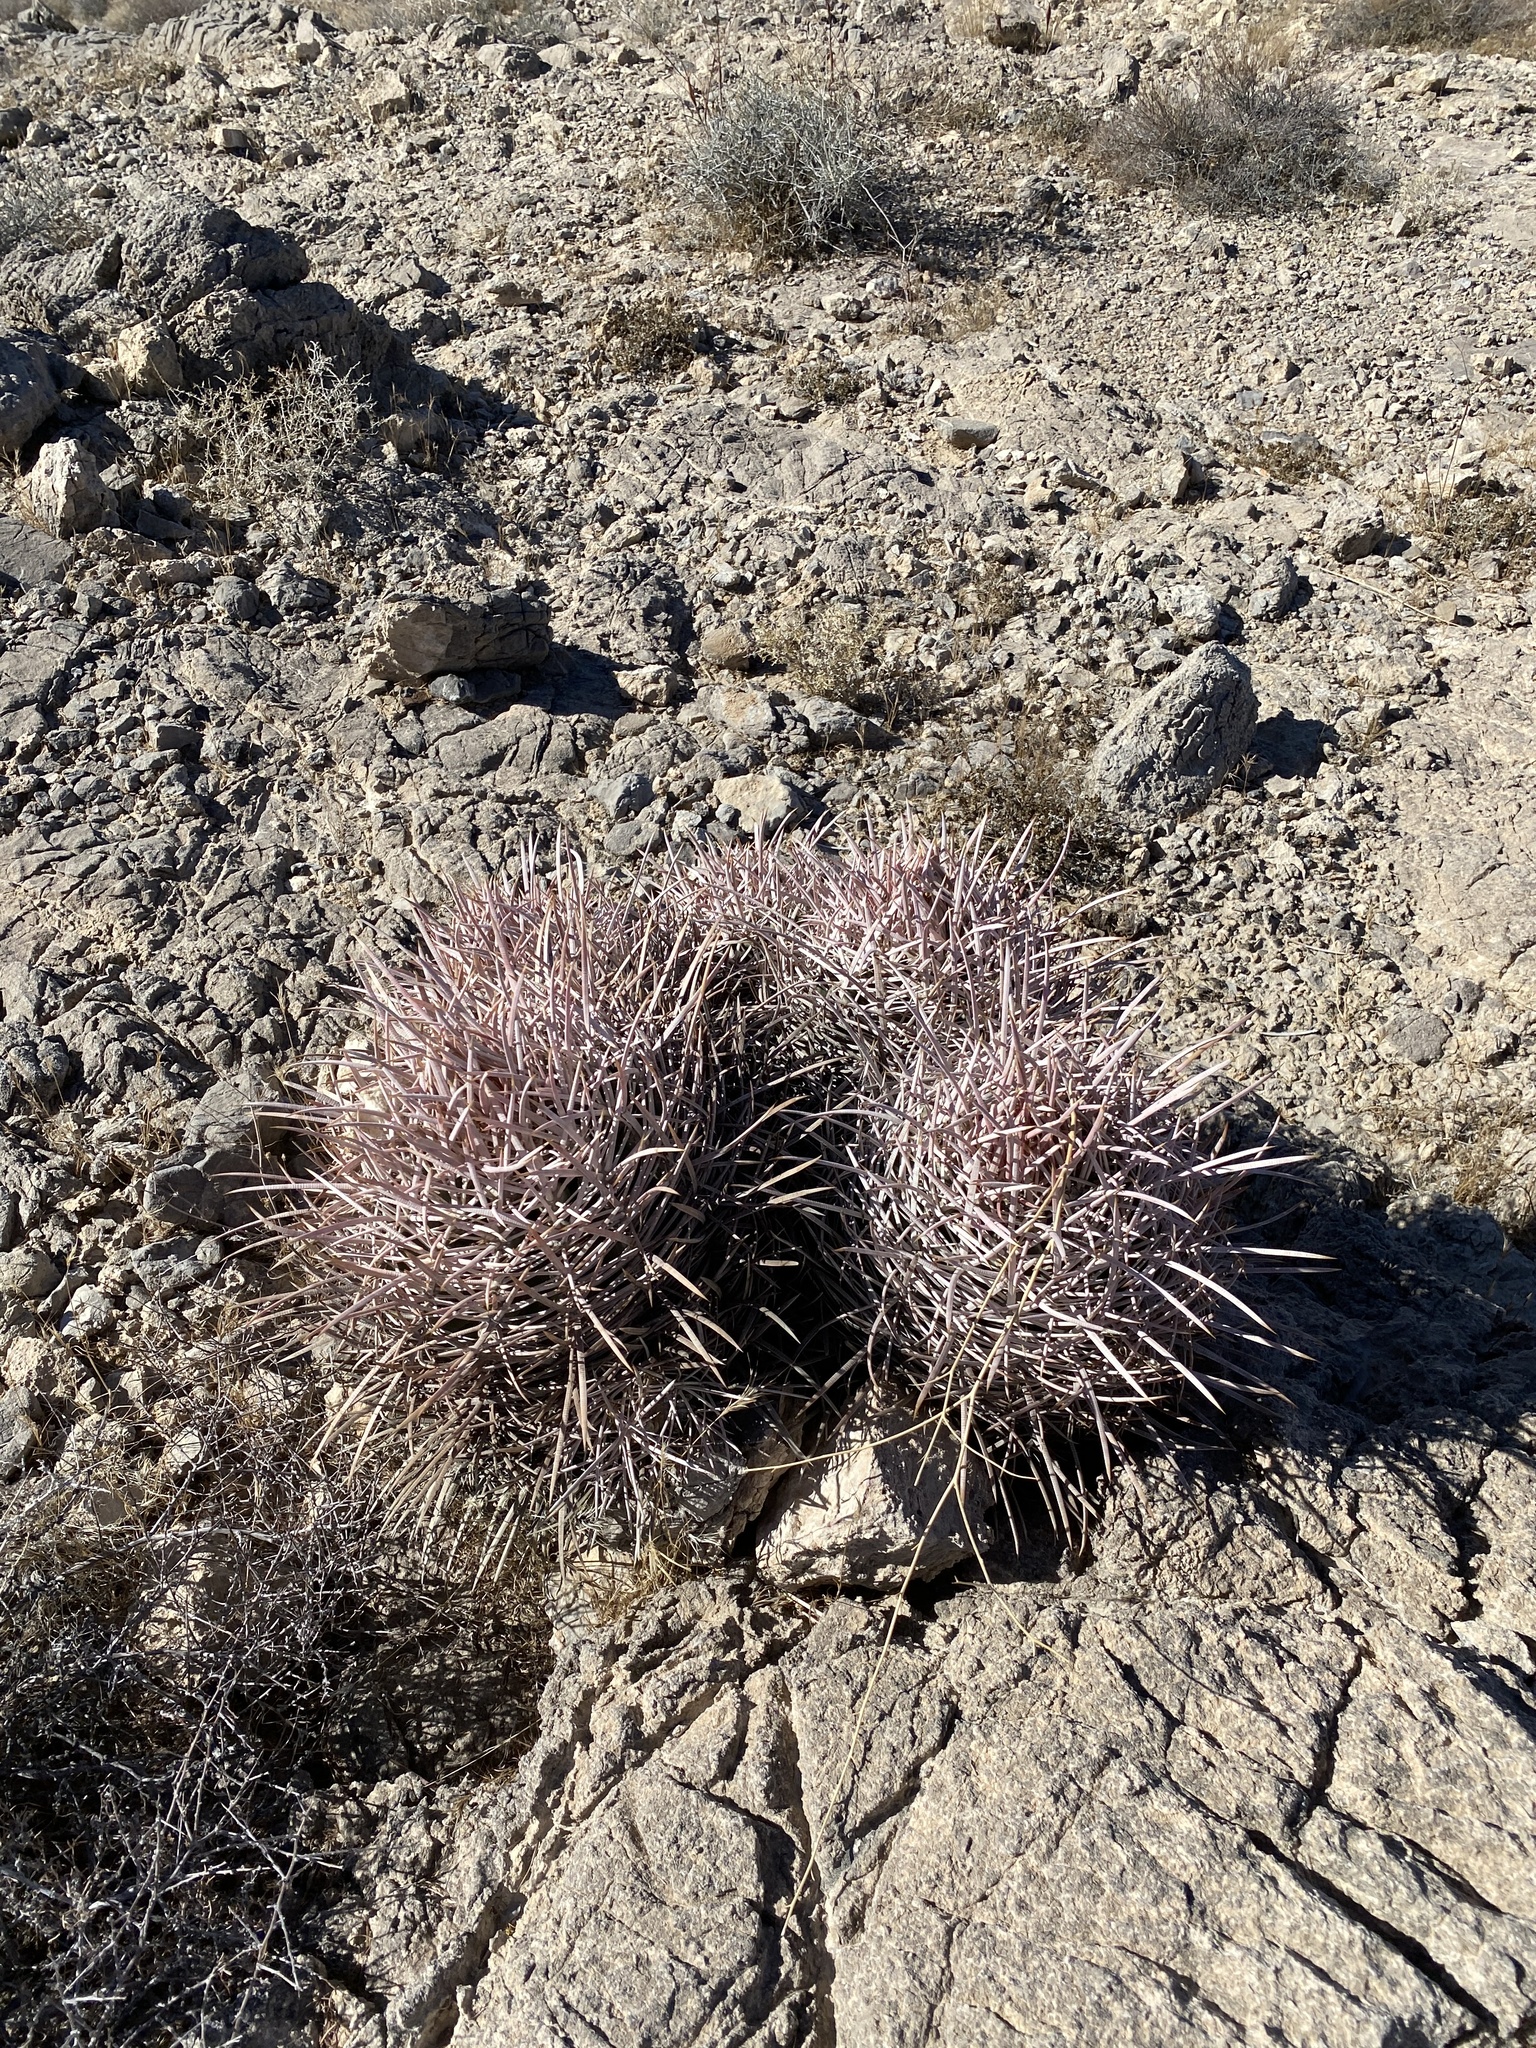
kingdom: Plantae
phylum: Tracheophyta
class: Magnoliopsida
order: Caryophyllales
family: Cactaceae
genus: Echinocactus
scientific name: Echinocactus polycephalus
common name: Cottontop cactus
